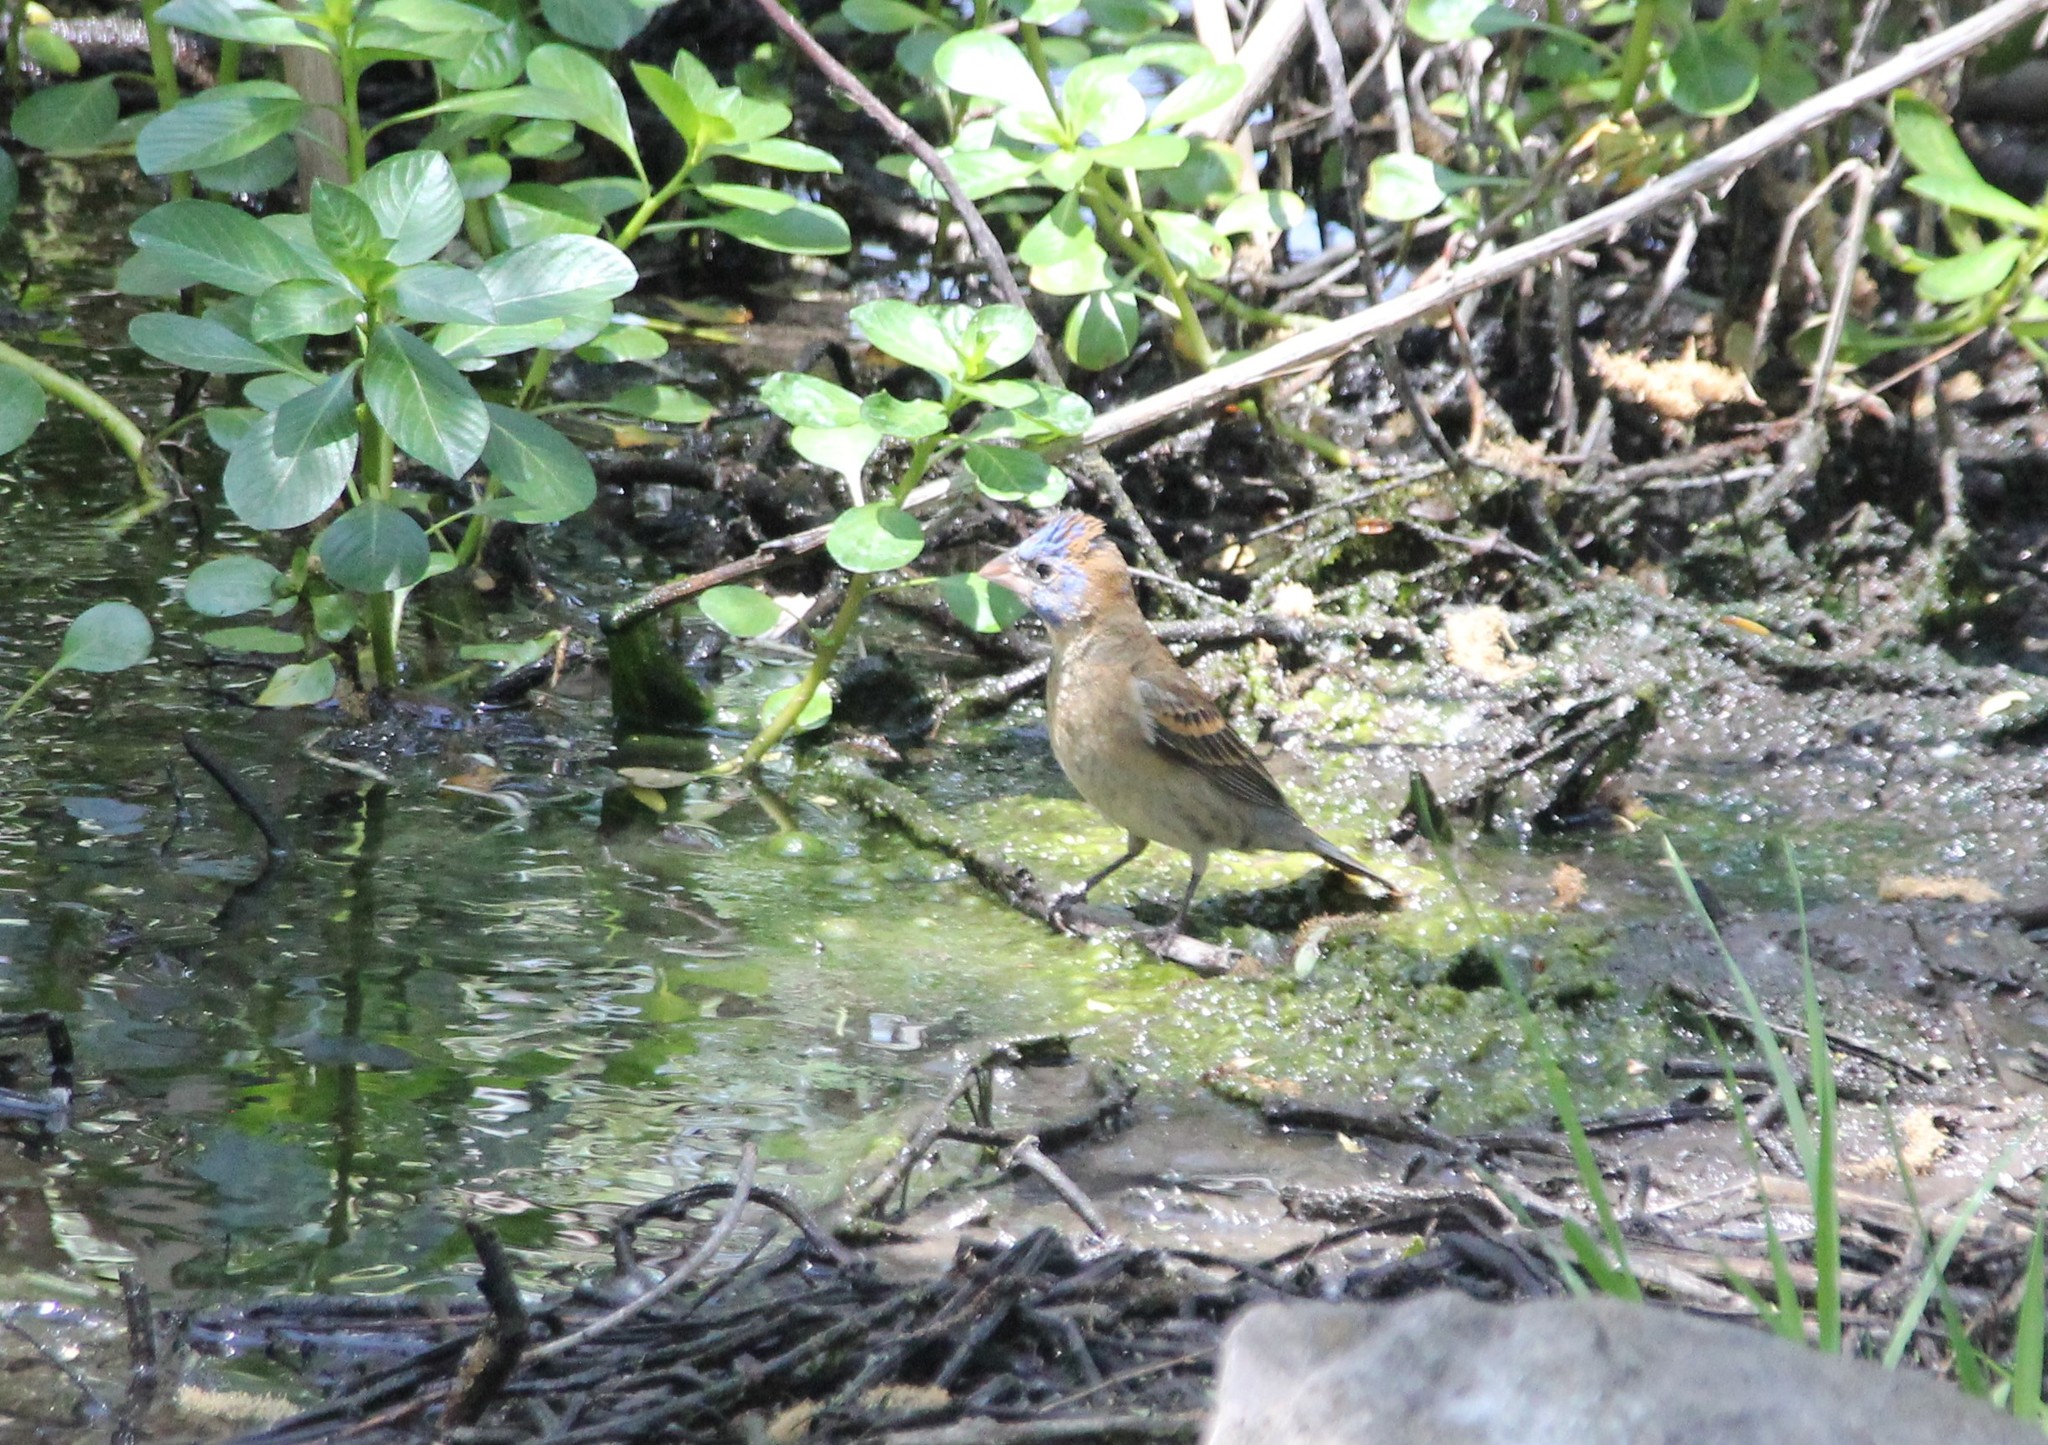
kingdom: Animalia
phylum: Chordata
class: Aves
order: Passeriformes
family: Cardinalidae
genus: Passerina
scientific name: Passerina caerulea
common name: Blue grosbeak
